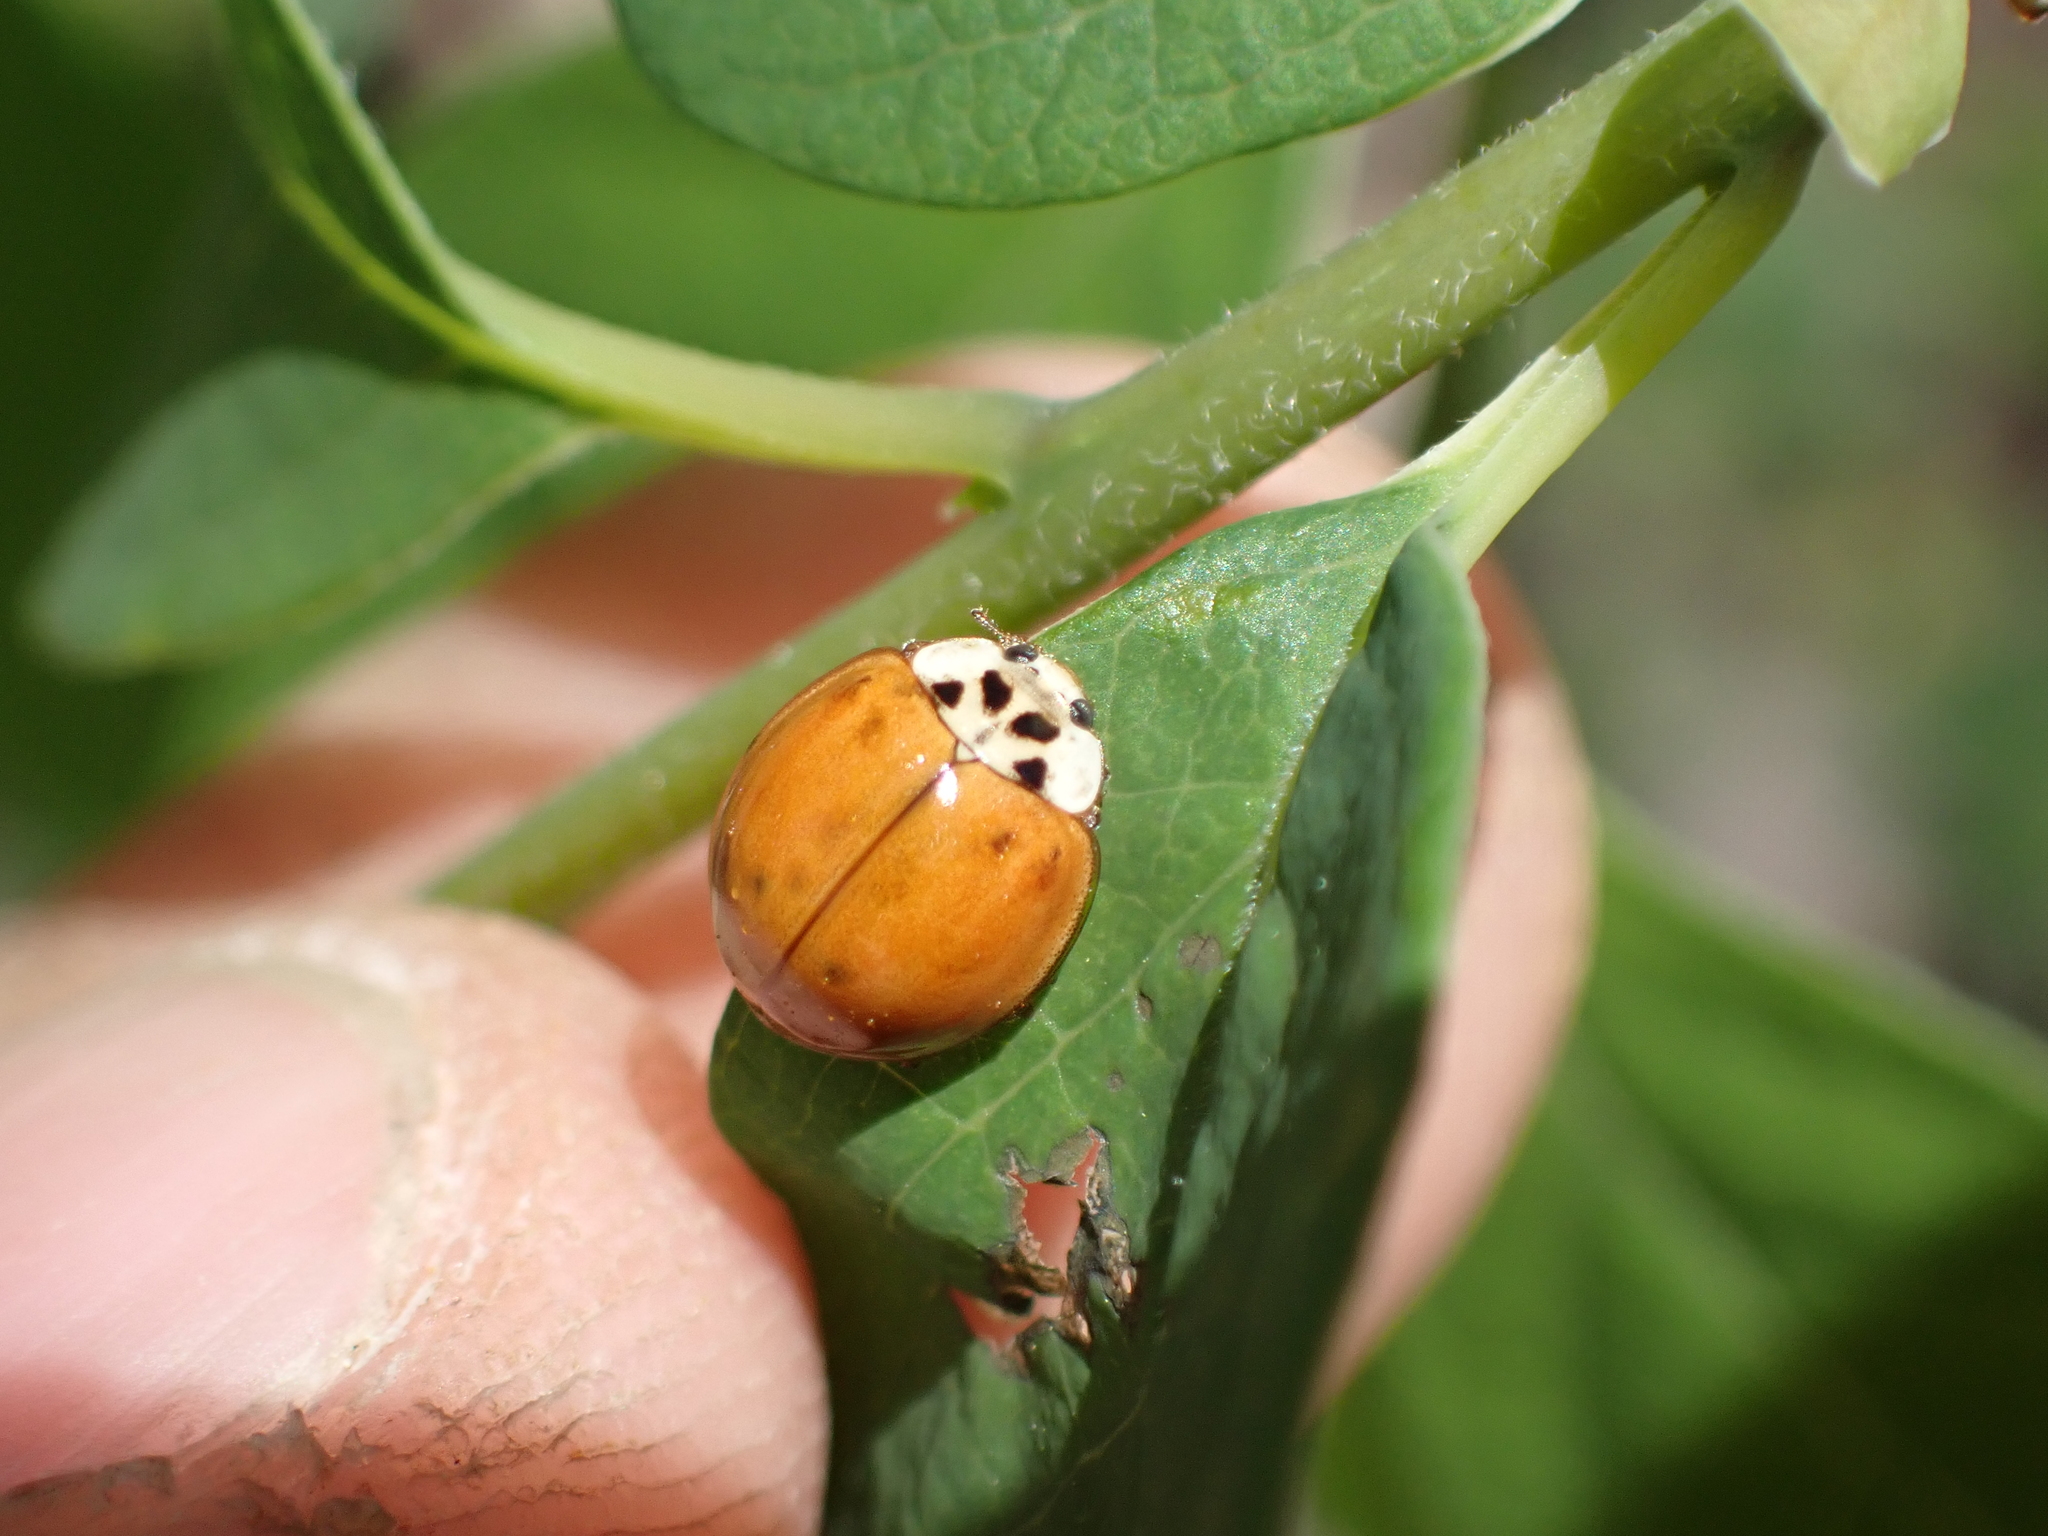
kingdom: Animalia
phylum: Arthropoda
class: Insecta
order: Coleoptera
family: Coccinellidae
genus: Harmonia
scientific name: Harmonia axyridis
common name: Harlequin ladybird
